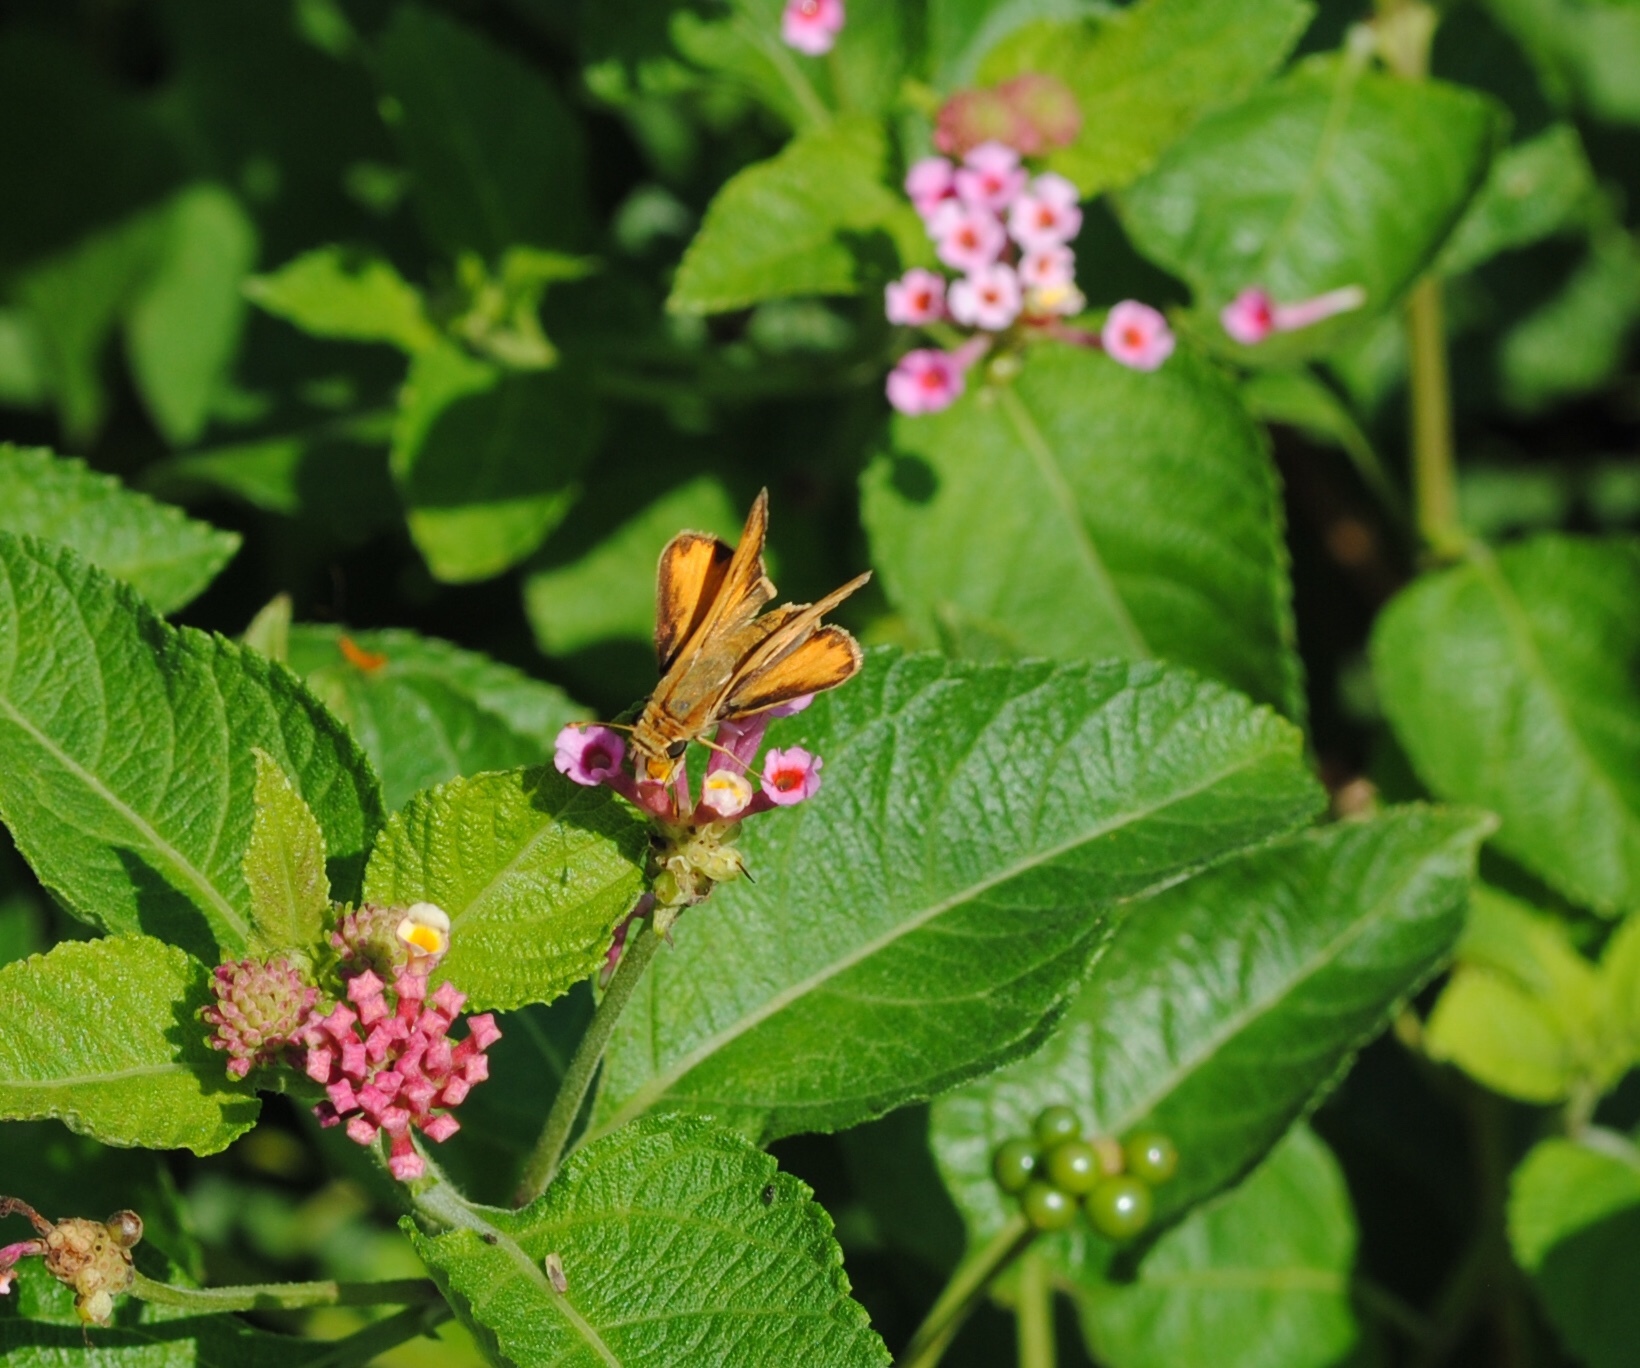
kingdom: Animalia
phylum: Arthropoda
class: Insecta
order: Lepidoptera
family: Hesperiidae
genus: Hylephila
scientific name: Hylephila phyleus
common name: Fiery skipper
